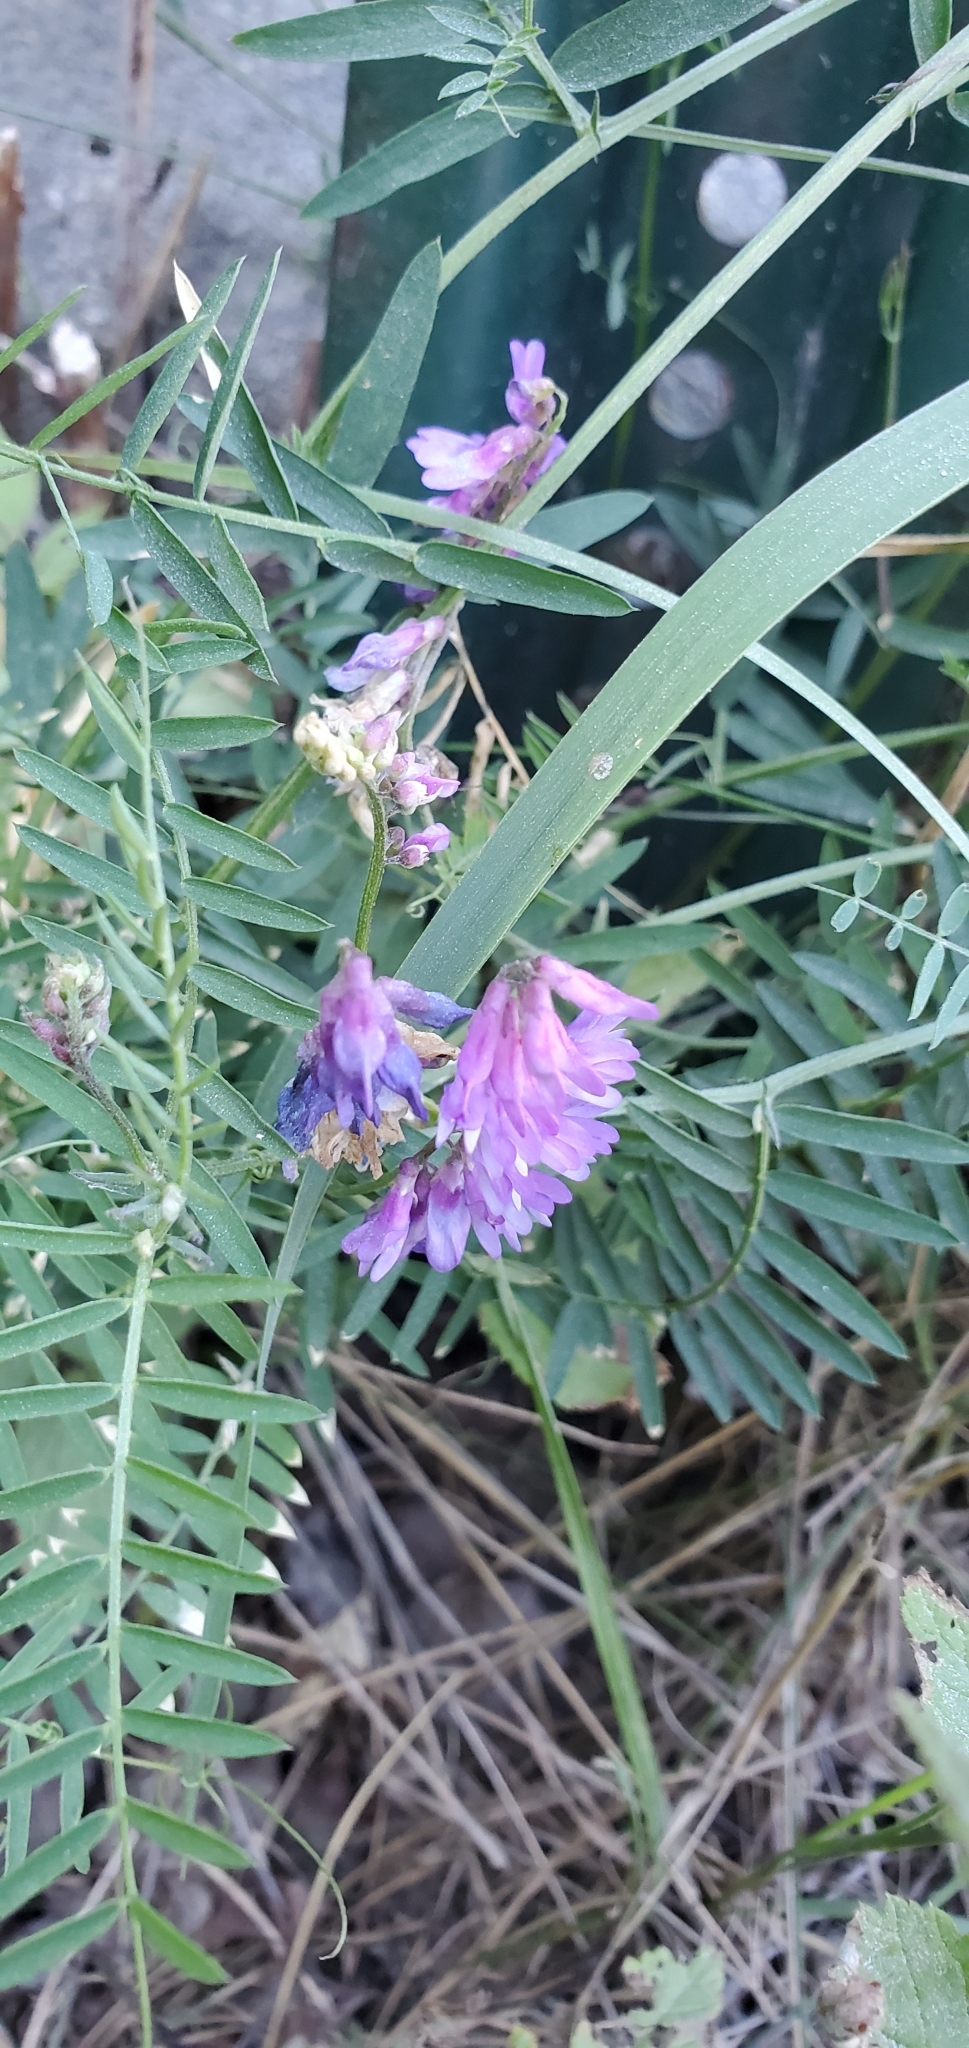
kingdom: Plantae
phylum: Tracheophyta
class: Magnoliopsida
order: Fabales
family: Fabaceae
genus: Vicia
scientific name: Vicia cracca
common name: Bird vetch
